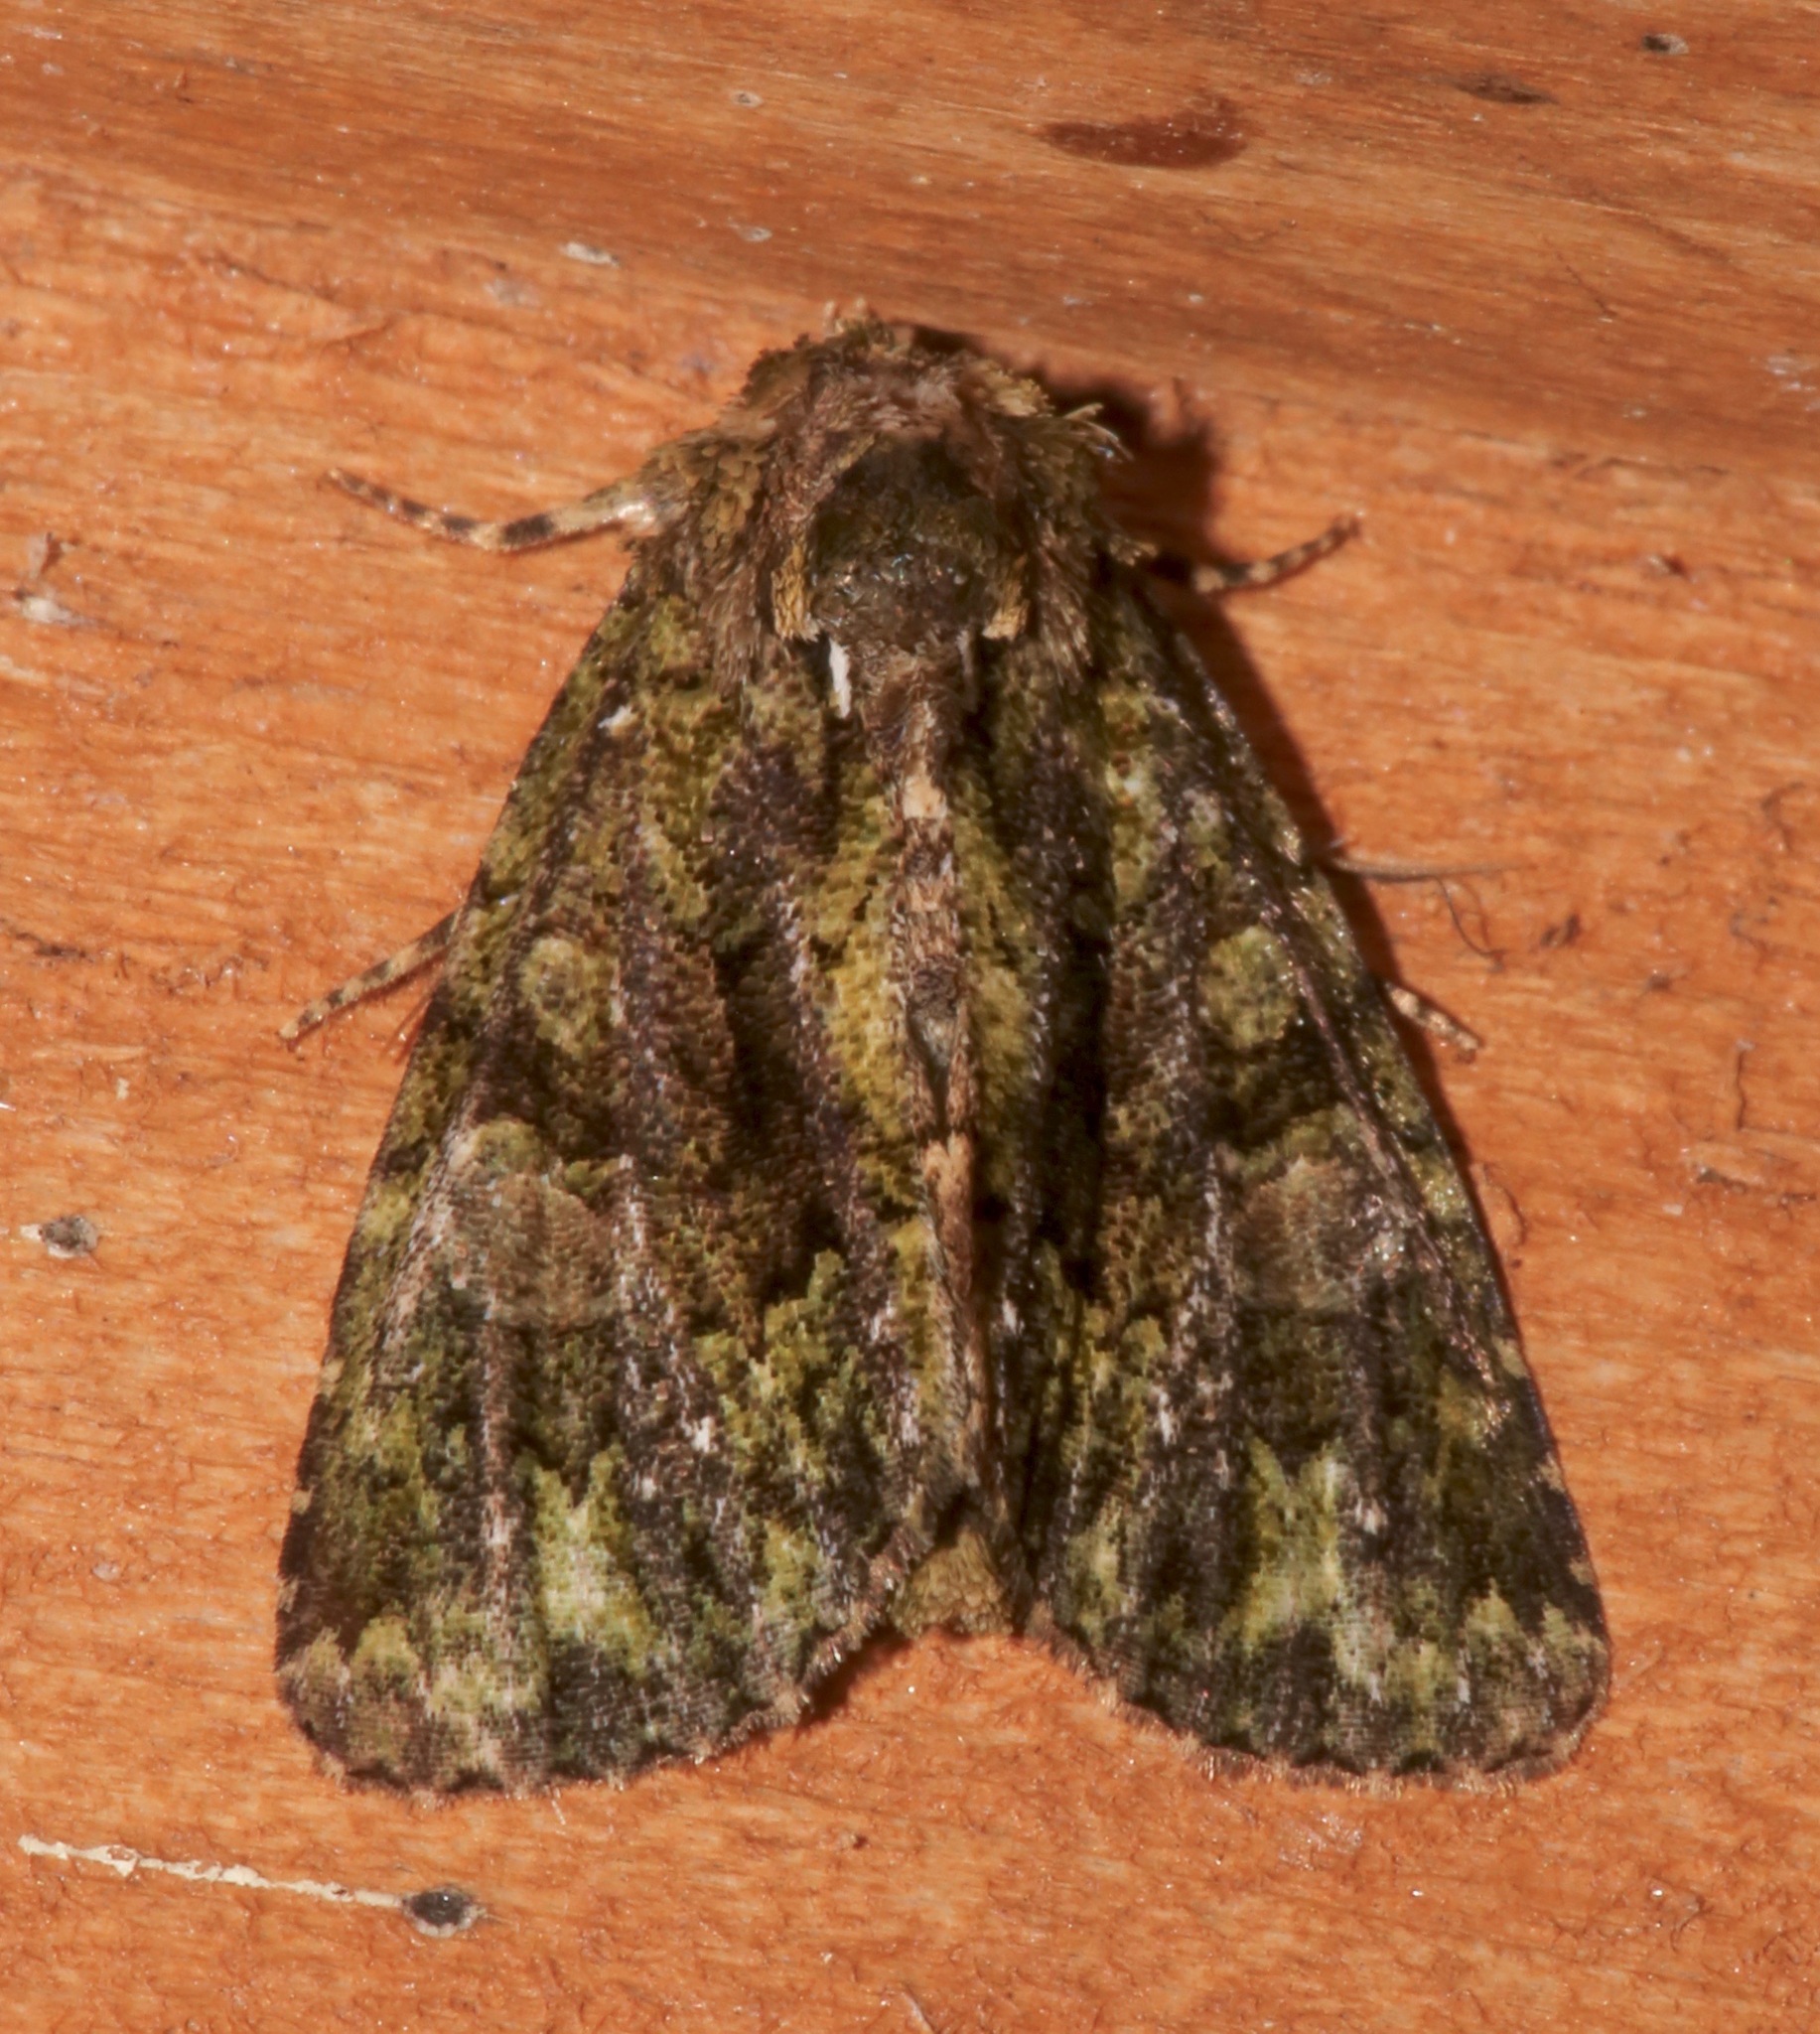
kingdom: Animalia
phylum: Arthropoda
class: Insecta
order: Lepidoptera
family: Noctuidae
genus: Phosphila
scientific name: Phosphila miselioides
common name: Spotted phosphila moth
